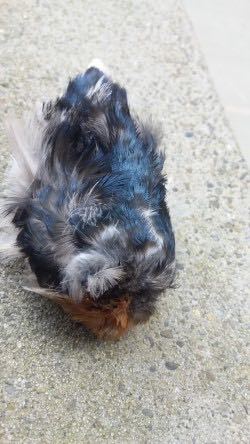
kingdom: Animalia
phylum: Chordata
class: Aves
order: Passeriformes
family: Hirundinidae
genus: Hirundo
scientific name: Hirundo neoxena
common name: Welcome swallow
